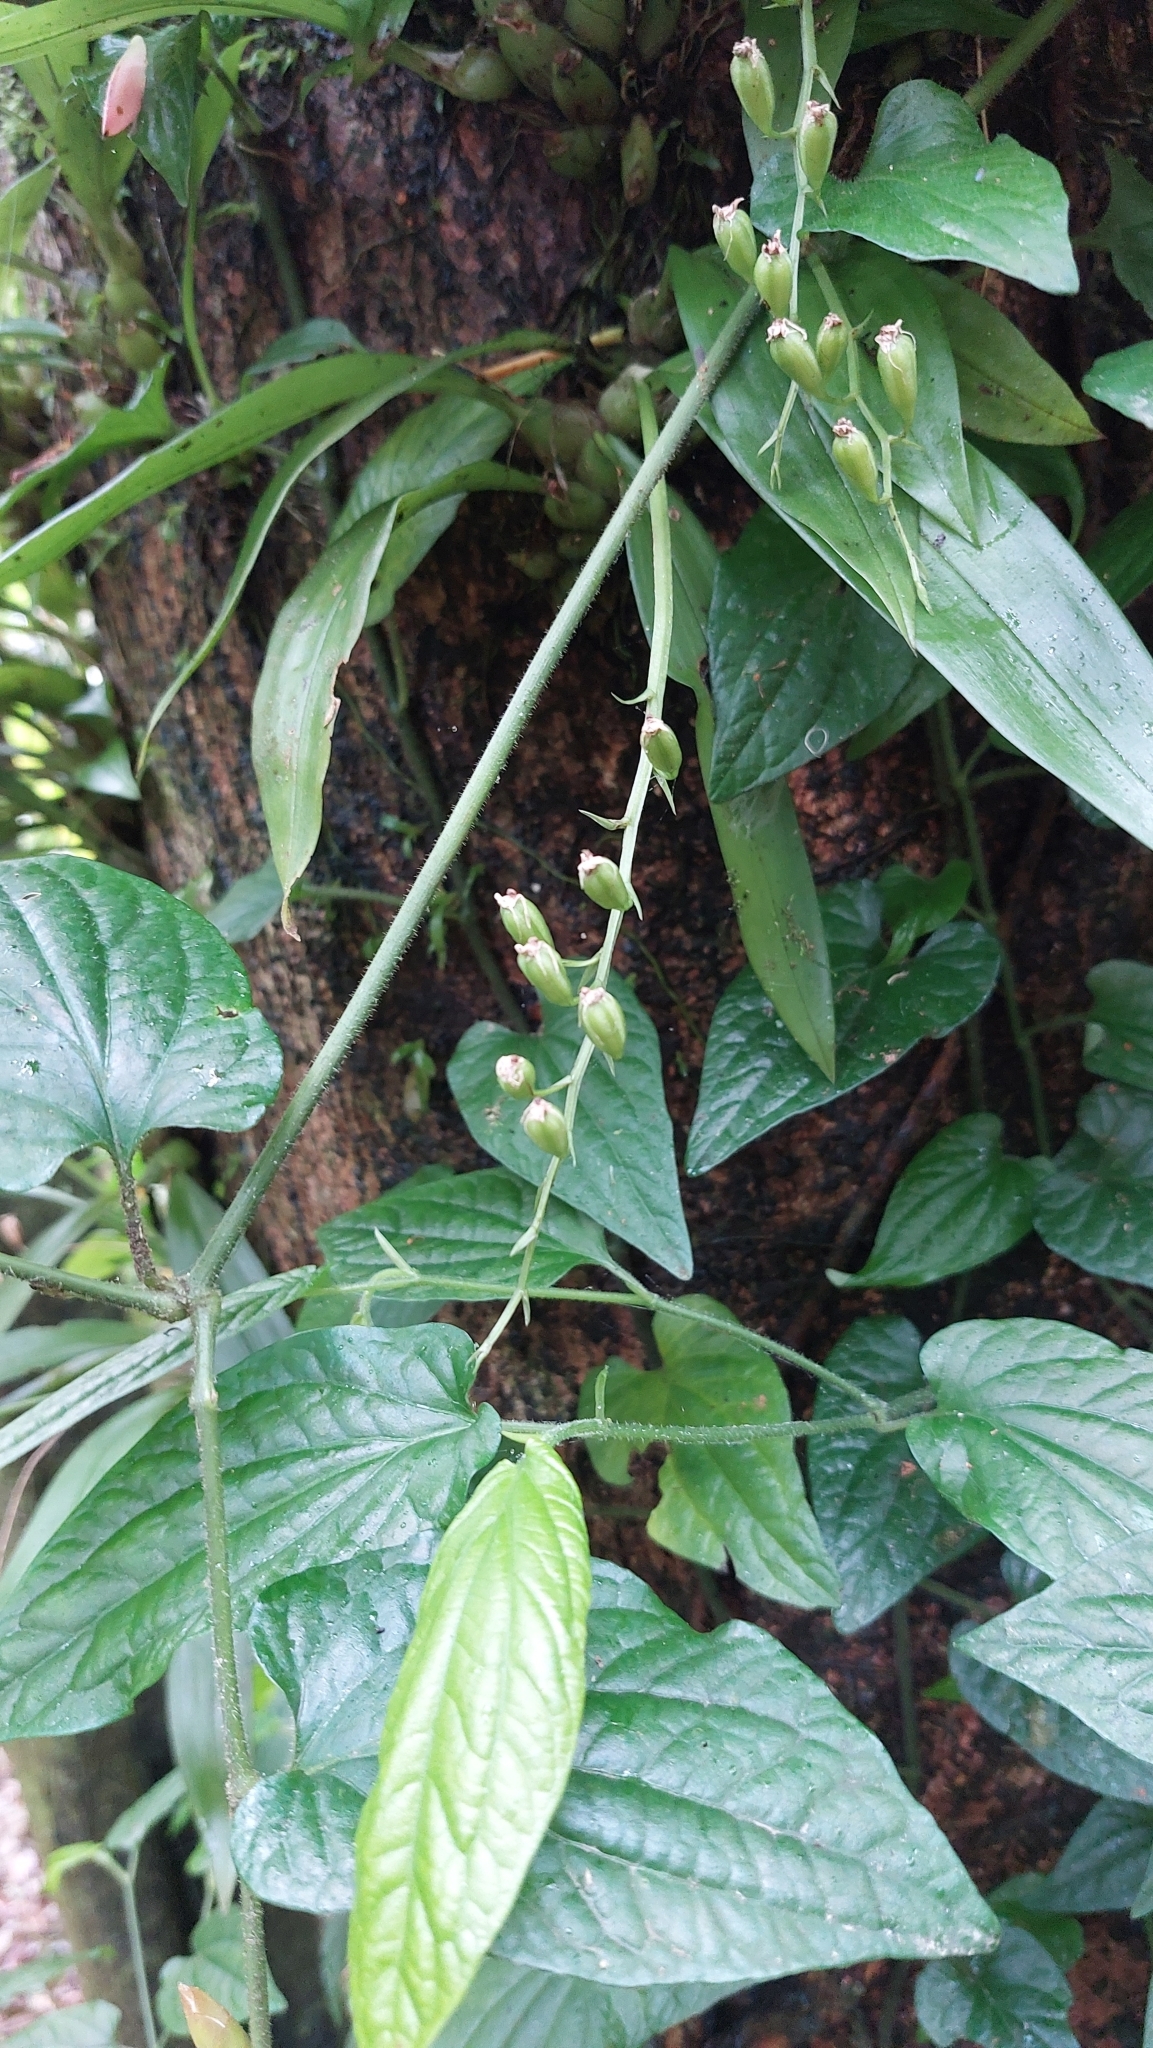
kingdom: Plantae
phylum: Tracheophyta
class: Liliopsida
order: Asparagales
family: Orchidaceae
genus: Liparis
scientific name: Liparis bootanensis
